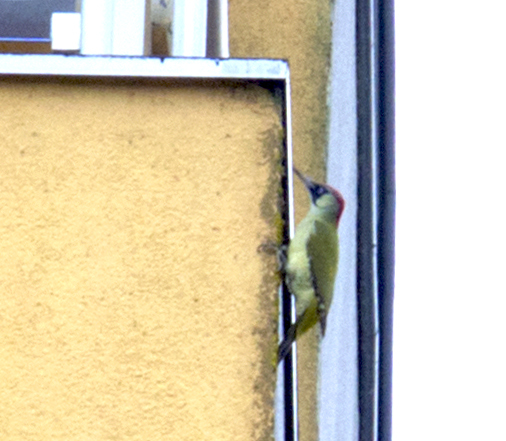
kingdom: Animalia
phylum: Chordata
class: Aves
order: Piciformes
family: Picidae
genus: Picus
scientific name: Picus viridis
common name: European green woodpecker
